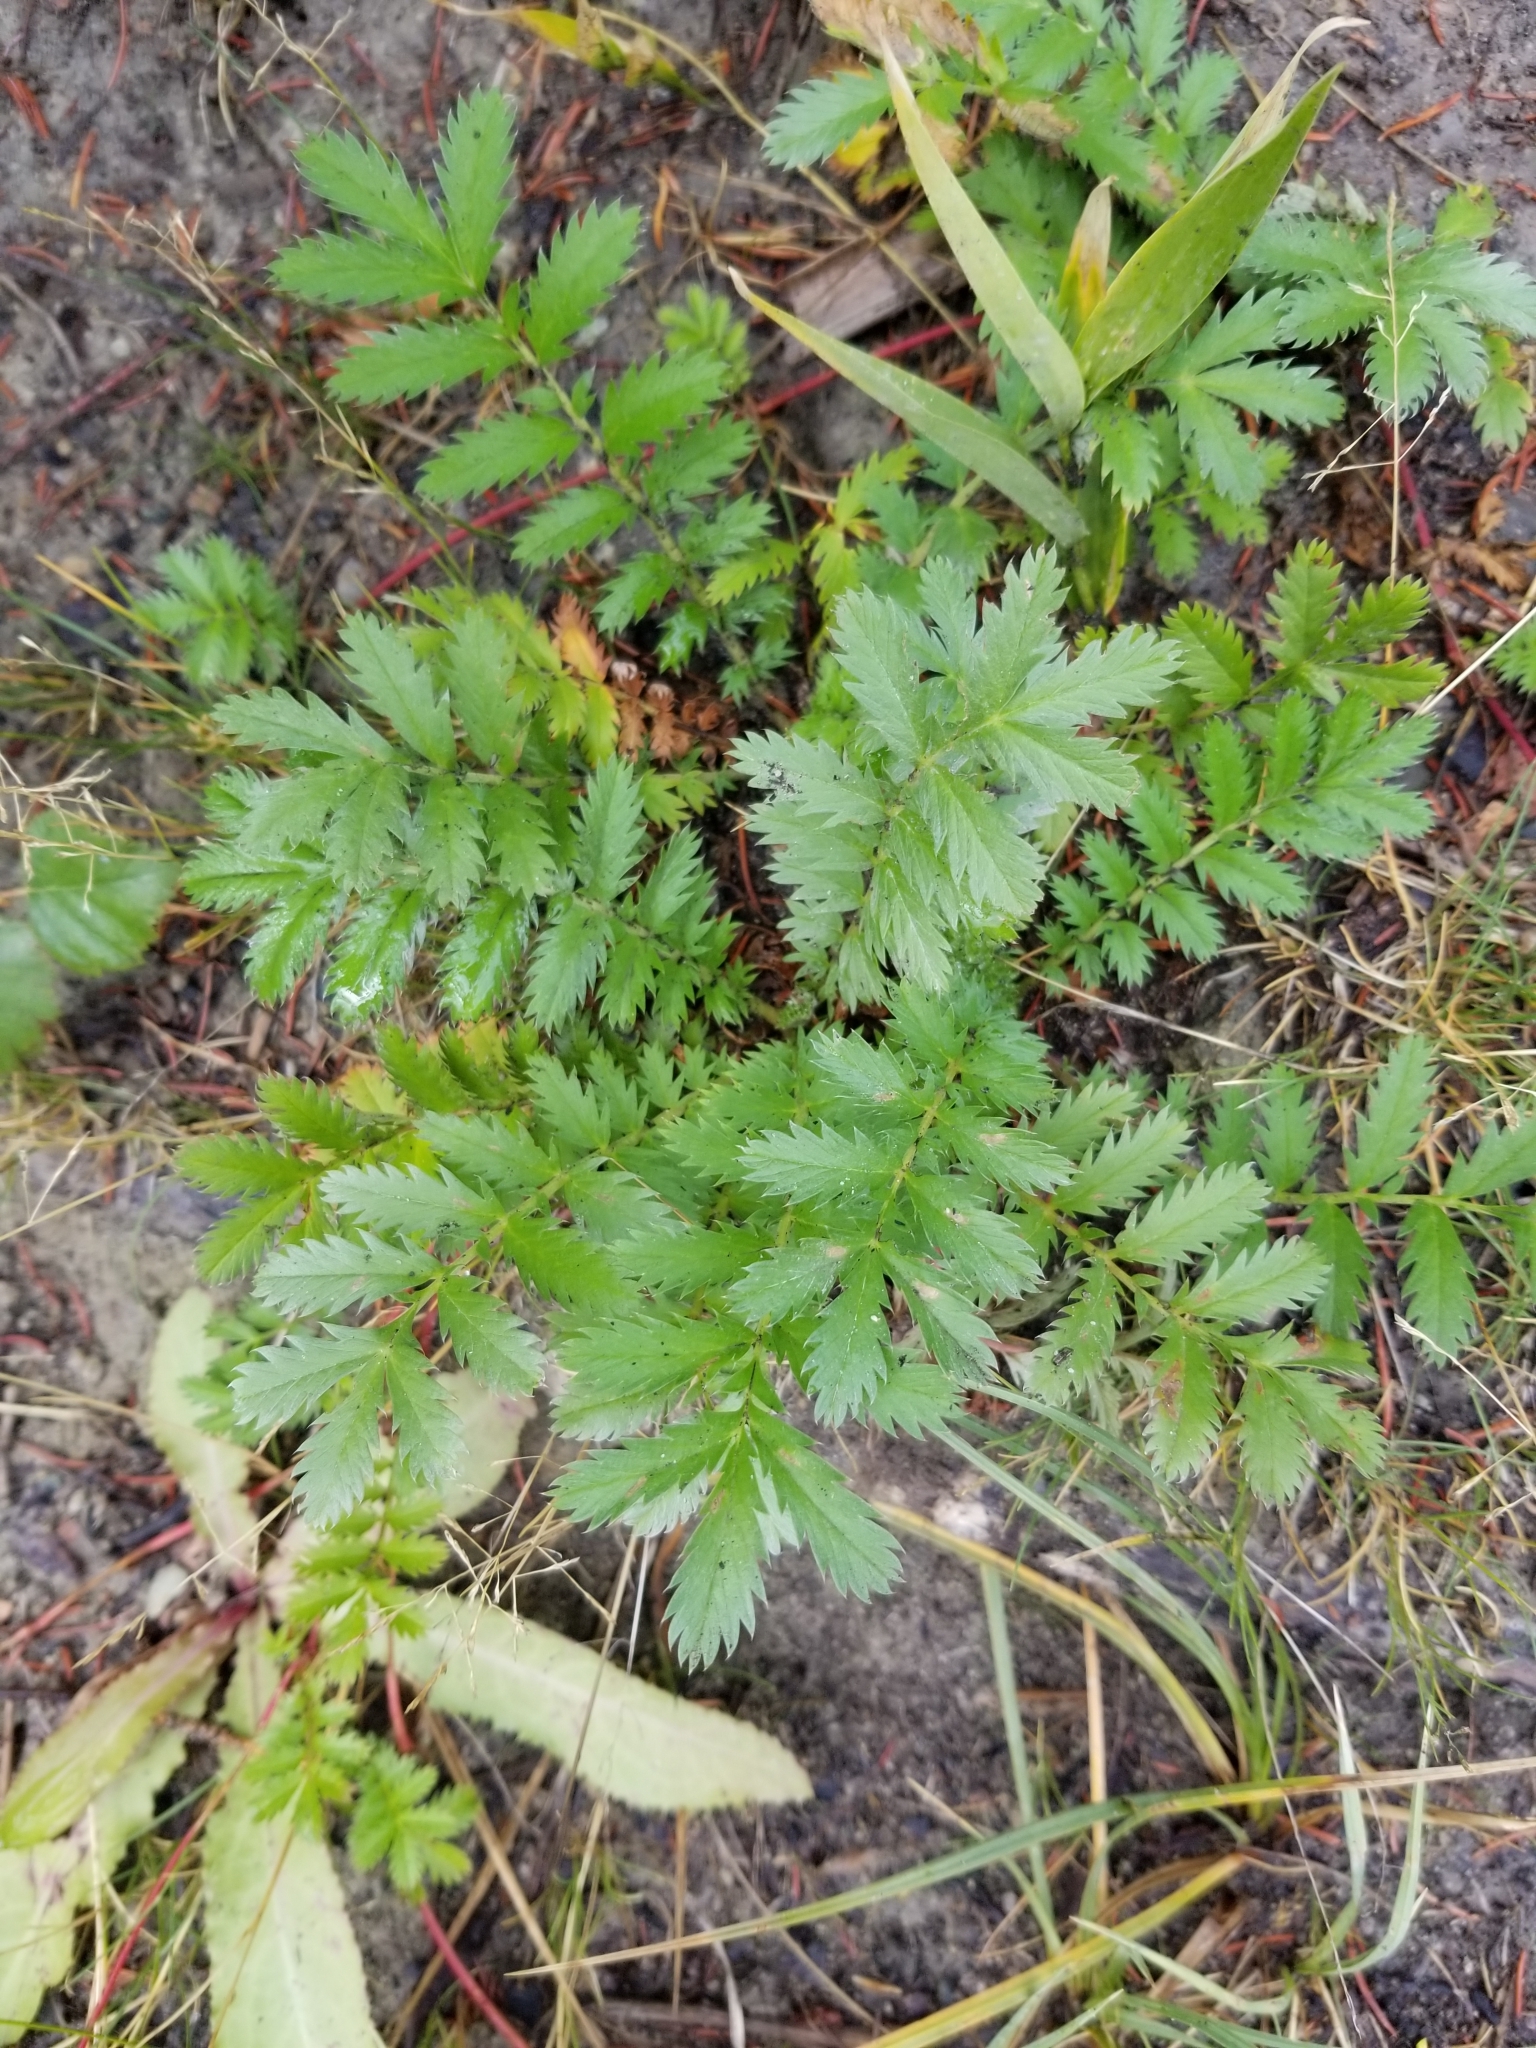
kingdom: Plantae
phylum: Tracheophyta
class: Magnoliopsida
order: Rosales
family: Rosaceae
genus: Argentina
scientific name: Argentina anserina
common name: Common silverweed
